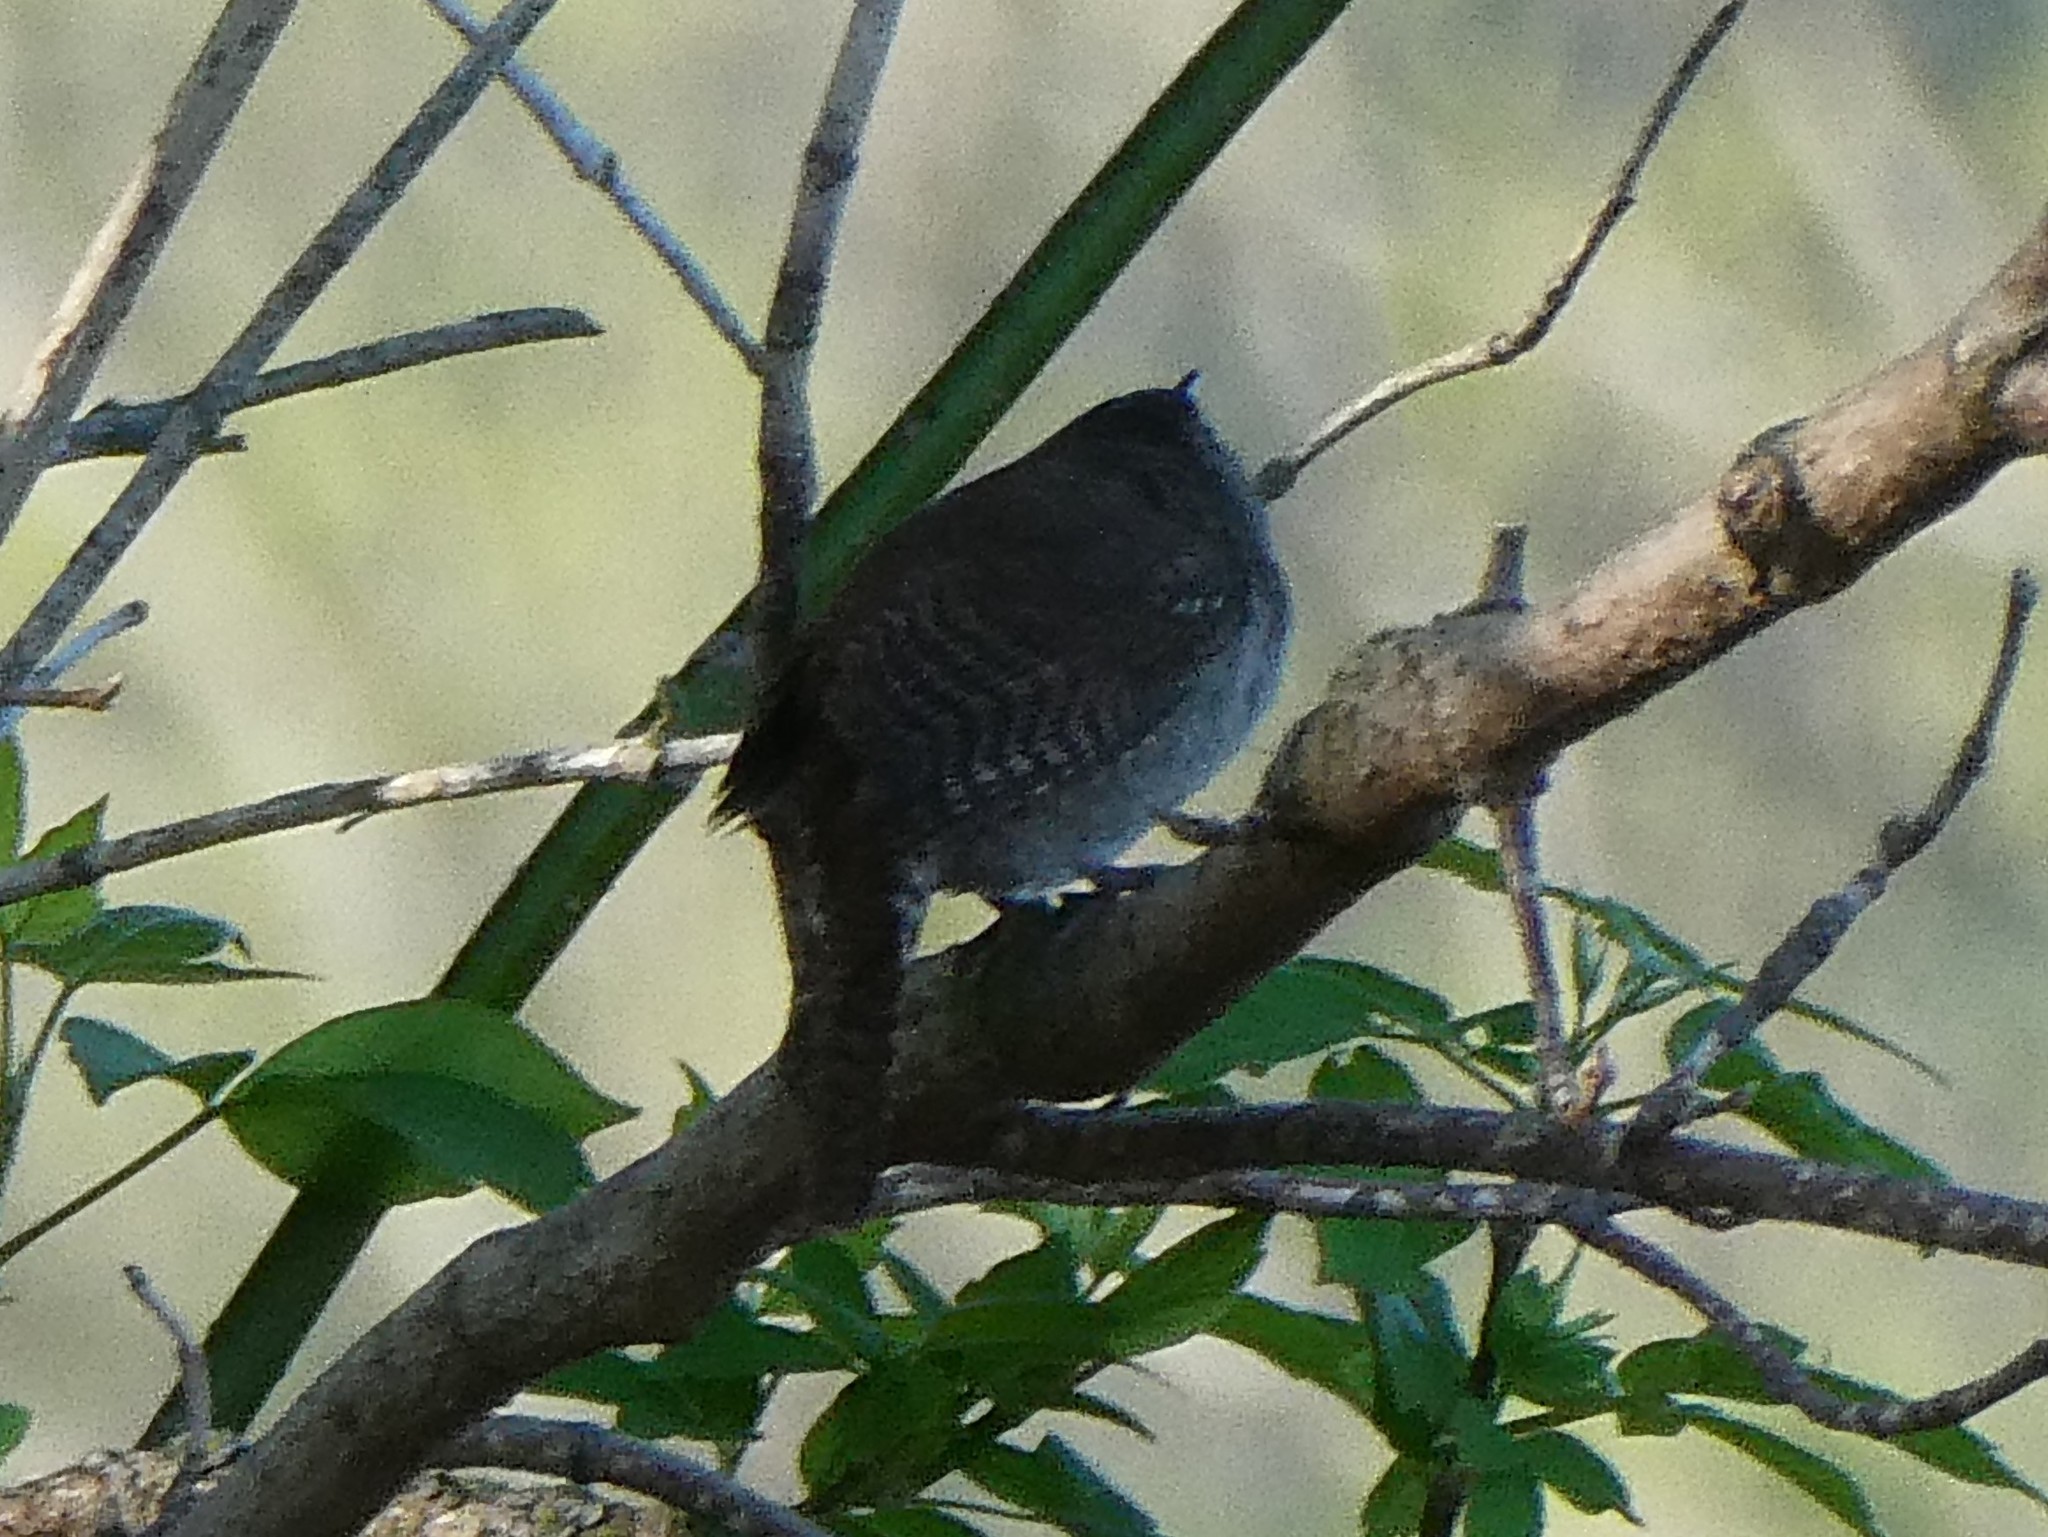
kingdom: Animalia
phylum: Chordata
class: Aves
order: Passeriformes
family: Troglodytidae
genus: Troglodytes
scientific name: Troglodytes aedon
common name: House wren
